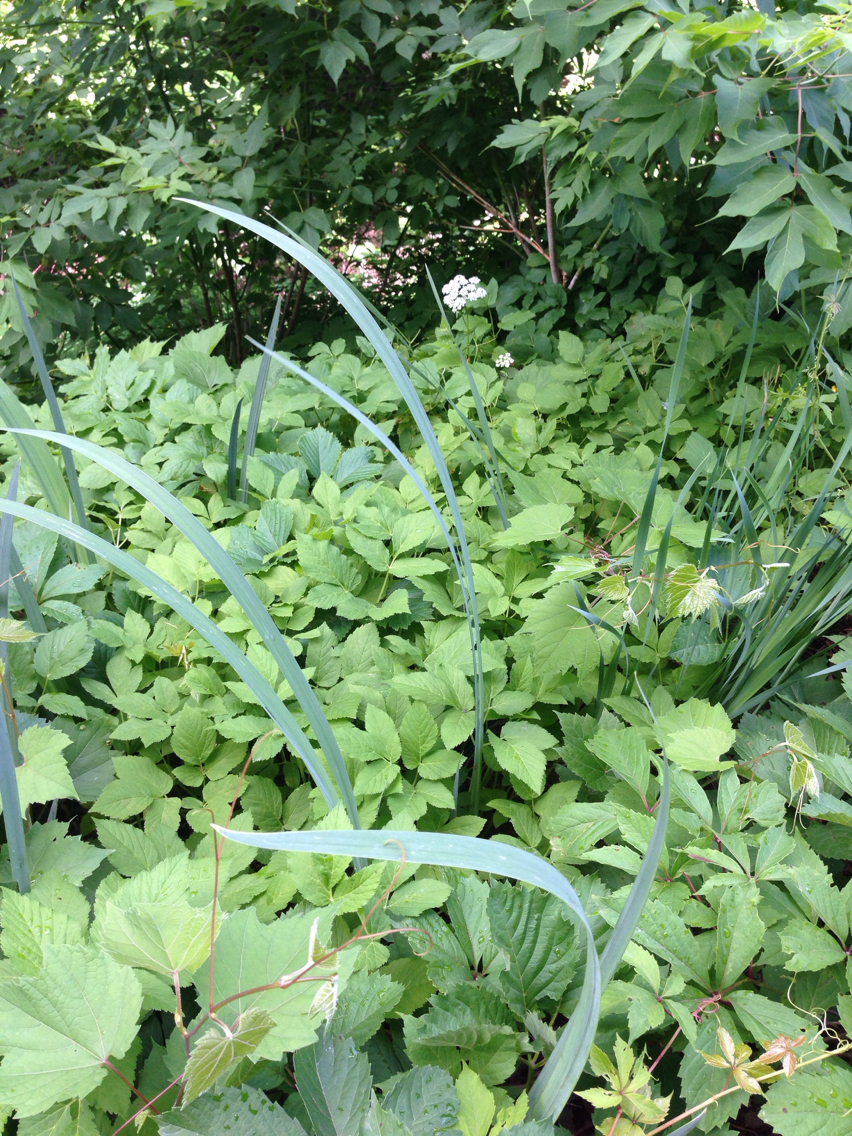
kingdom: Plantae
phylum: Tracheophyta
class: Magnoliopsida
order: Apiales
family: Apiaceae
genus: Aegopodium
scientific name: Aegopodium podagraria
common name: Ground-elder
